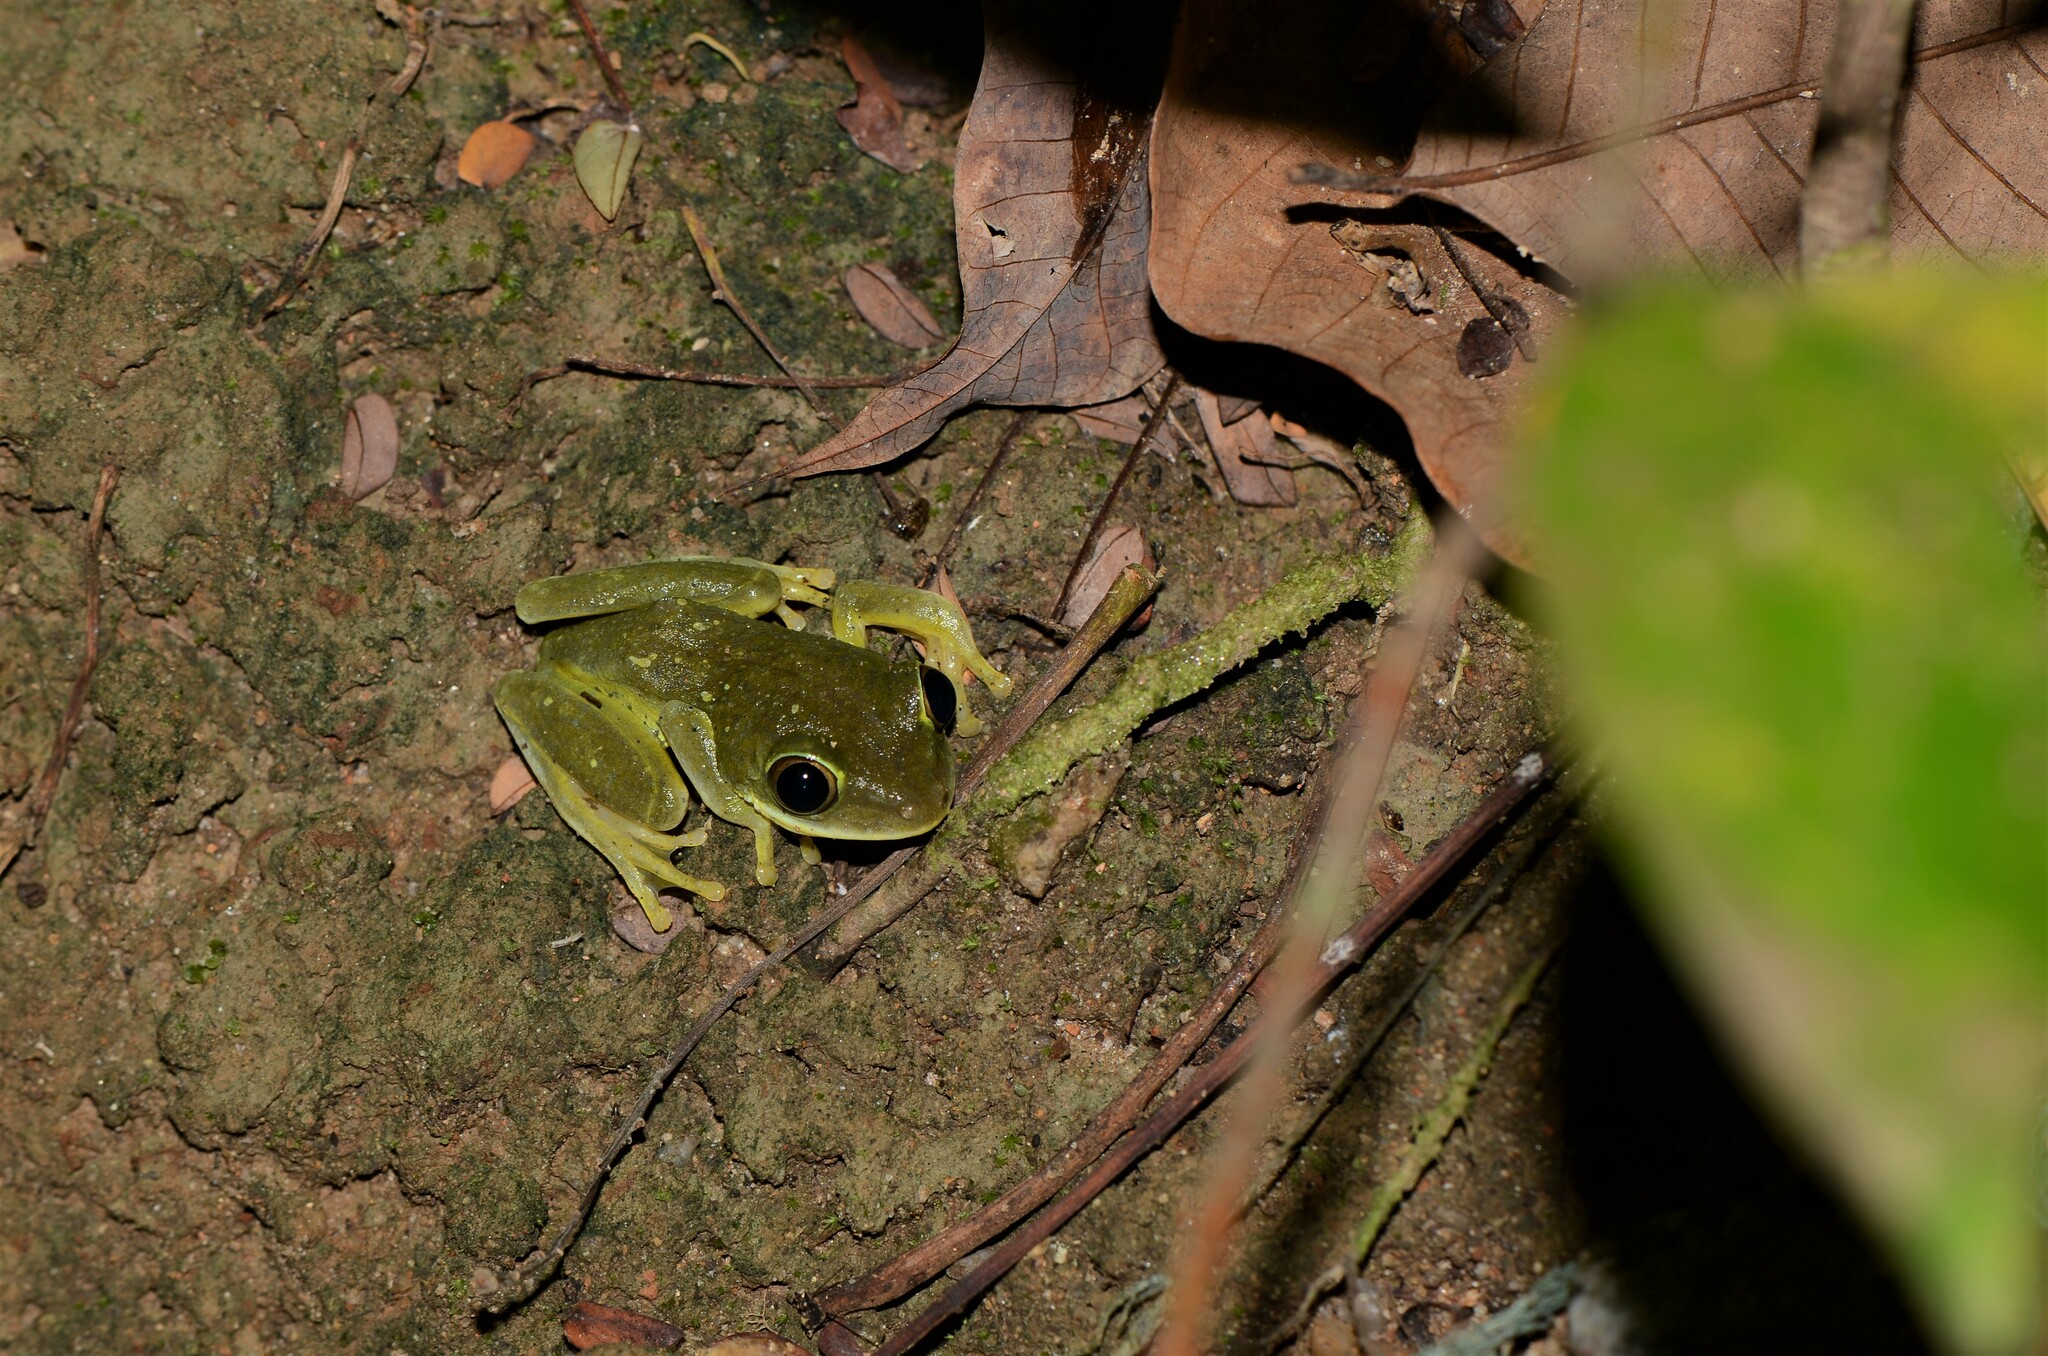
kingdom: Animalia
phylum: Chordata
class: Amphibia
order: Anura
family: Hyperoliidae
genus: Tachycnemis
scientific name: Tachycnemis seychellensis
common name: Seychelles treefrog
